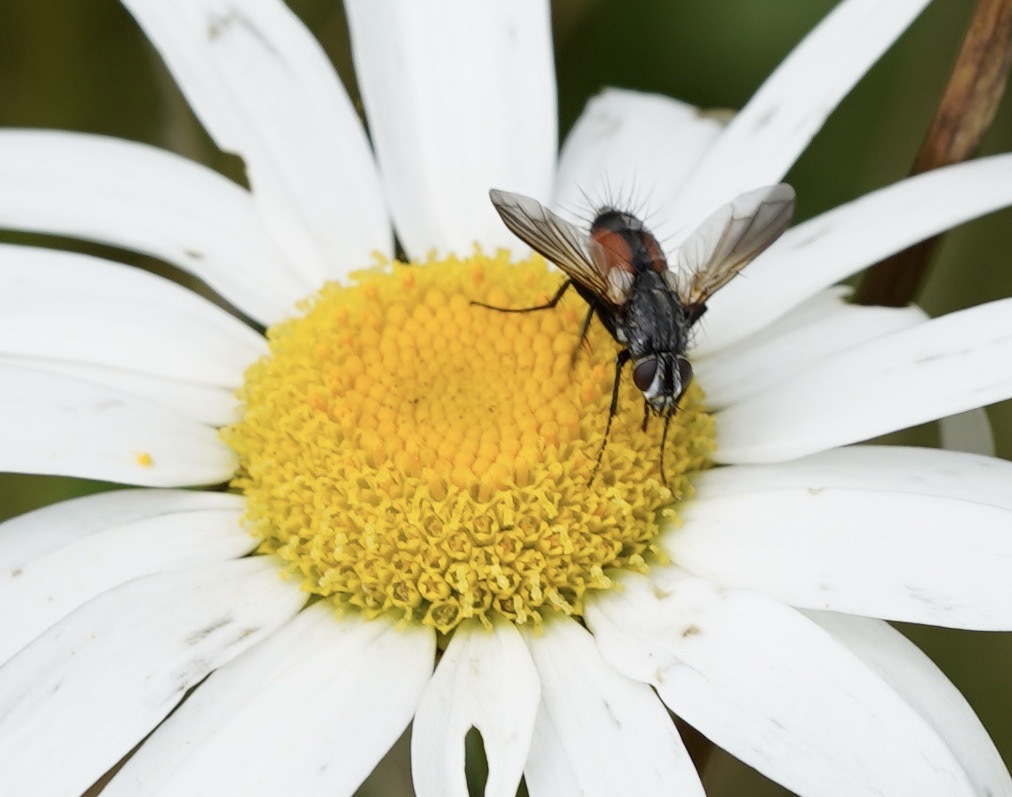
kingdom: Animalia
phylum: Arthropoda
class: Insecta
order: Diptera
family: Tachinidae
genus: Eriothrix
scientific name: Eriothrix rufomaculatus
